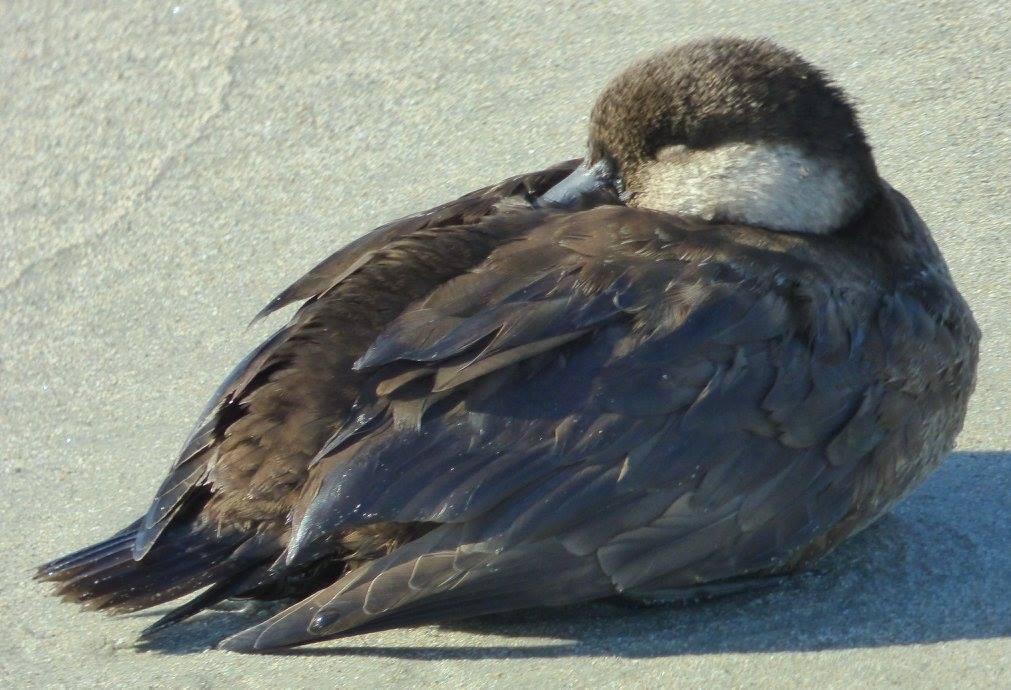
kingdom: Animalia
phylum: Chordata
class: Aves
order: Anseriformes
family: Anatidae
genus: Melanitta
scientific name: Melanitta americana
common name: Black scoter
